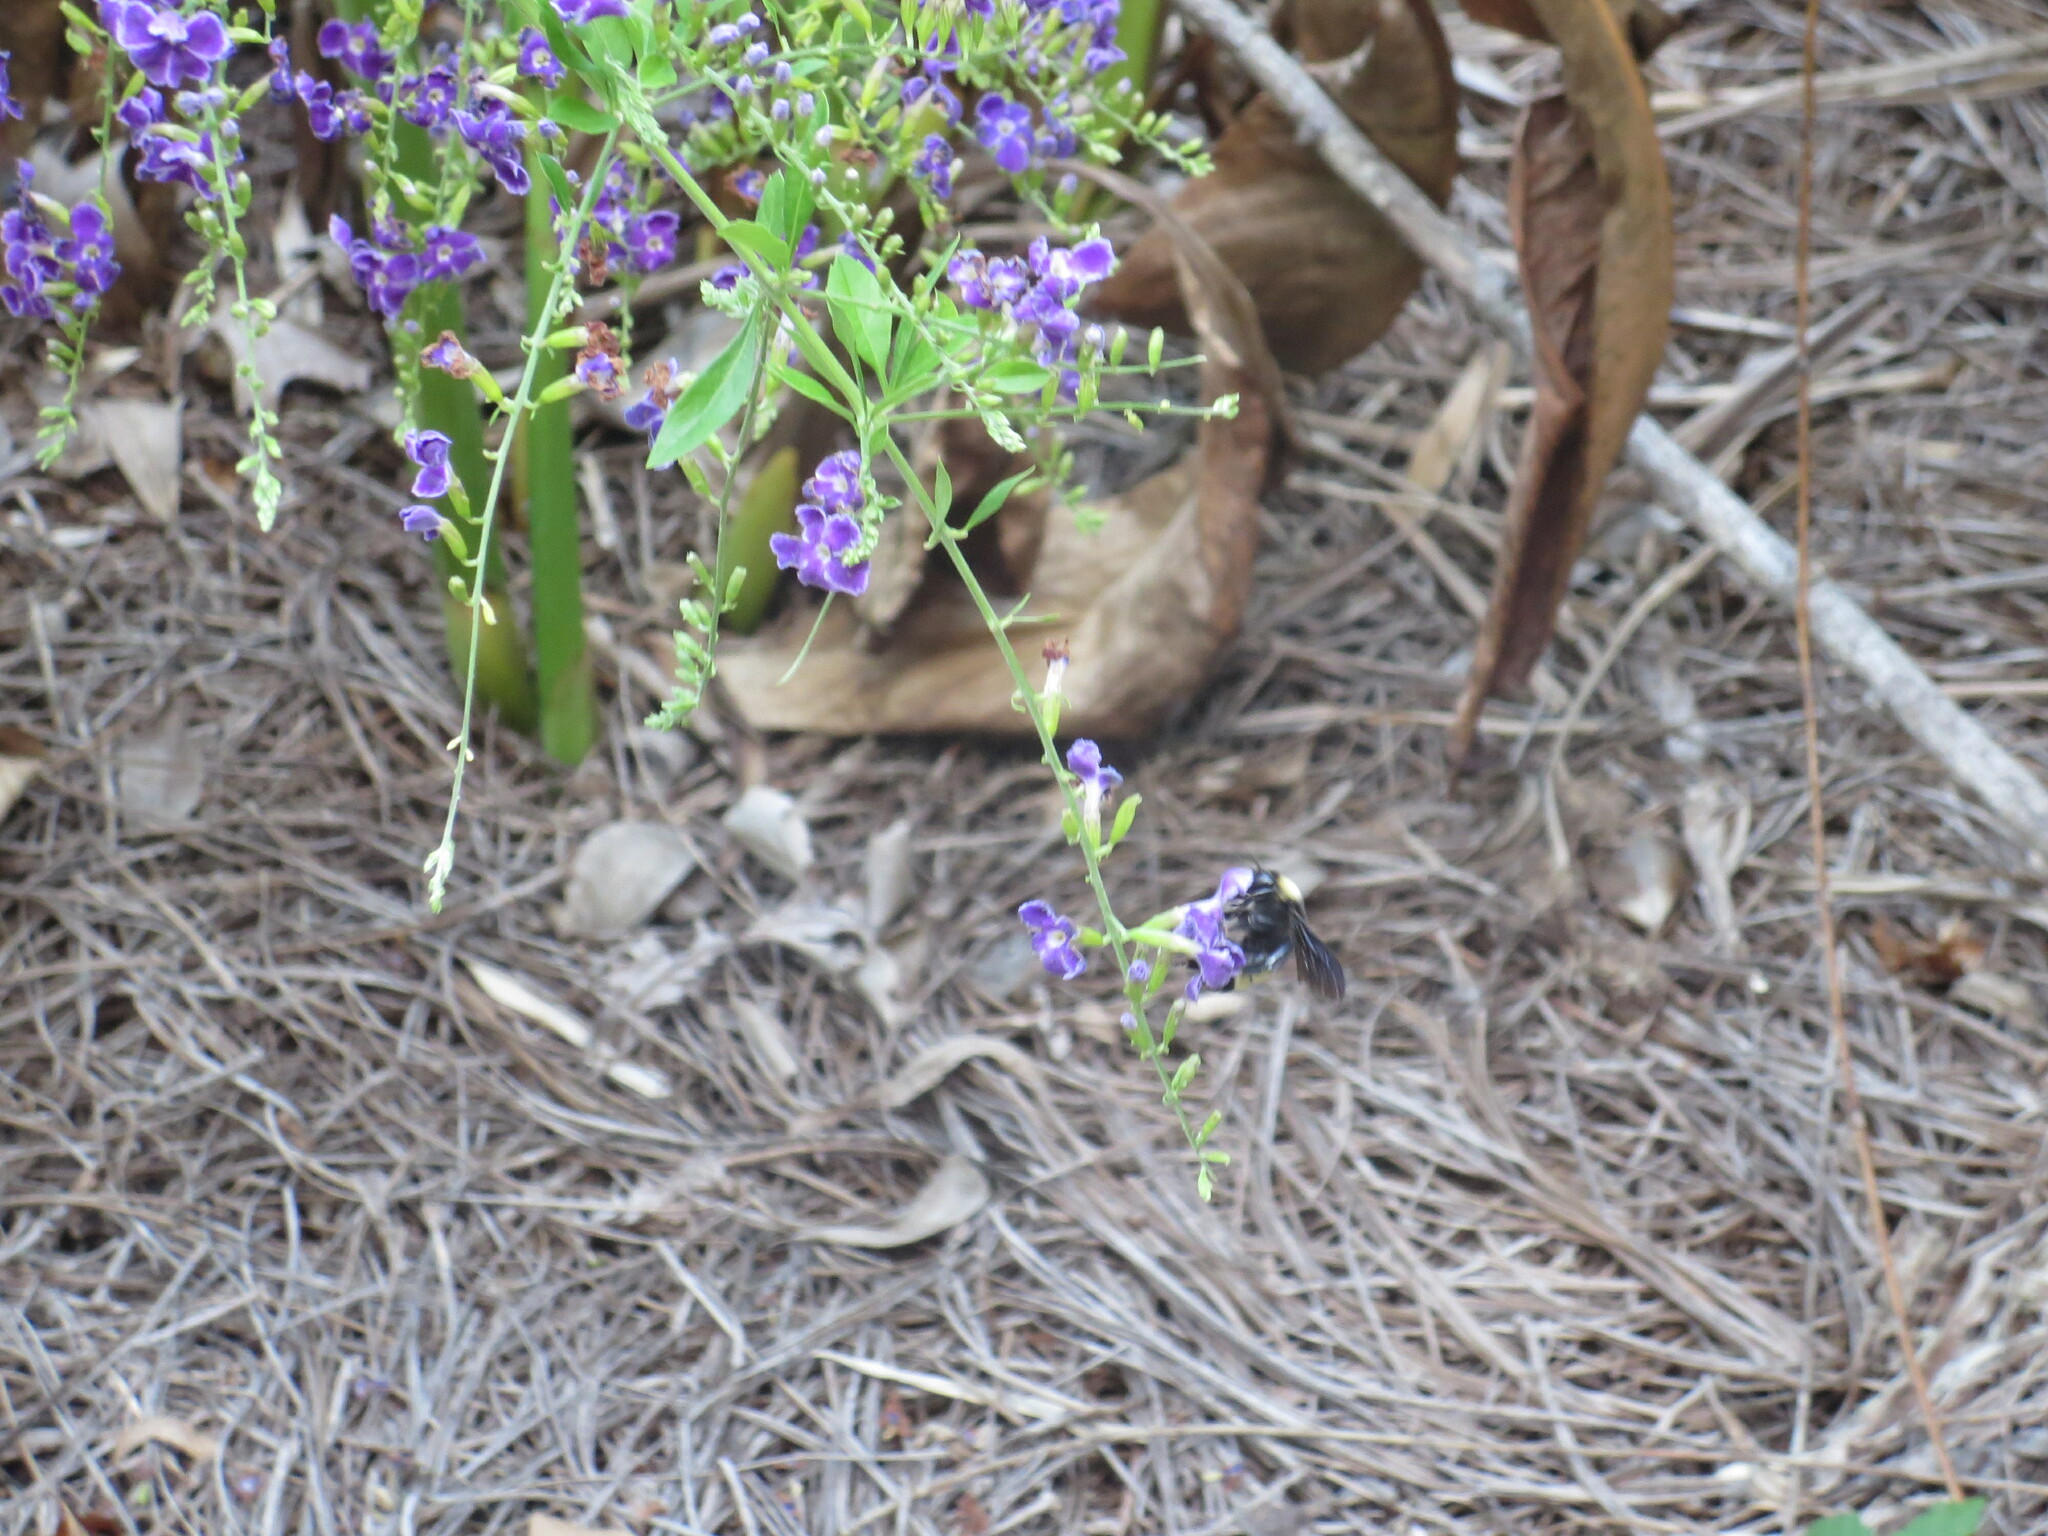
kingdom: Animalia
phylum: Arthropoda
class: Insecta
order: Hymenoptera
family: Apidae
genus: Bombus
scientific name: Bombus pensylvanicus
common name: Bumble bee
